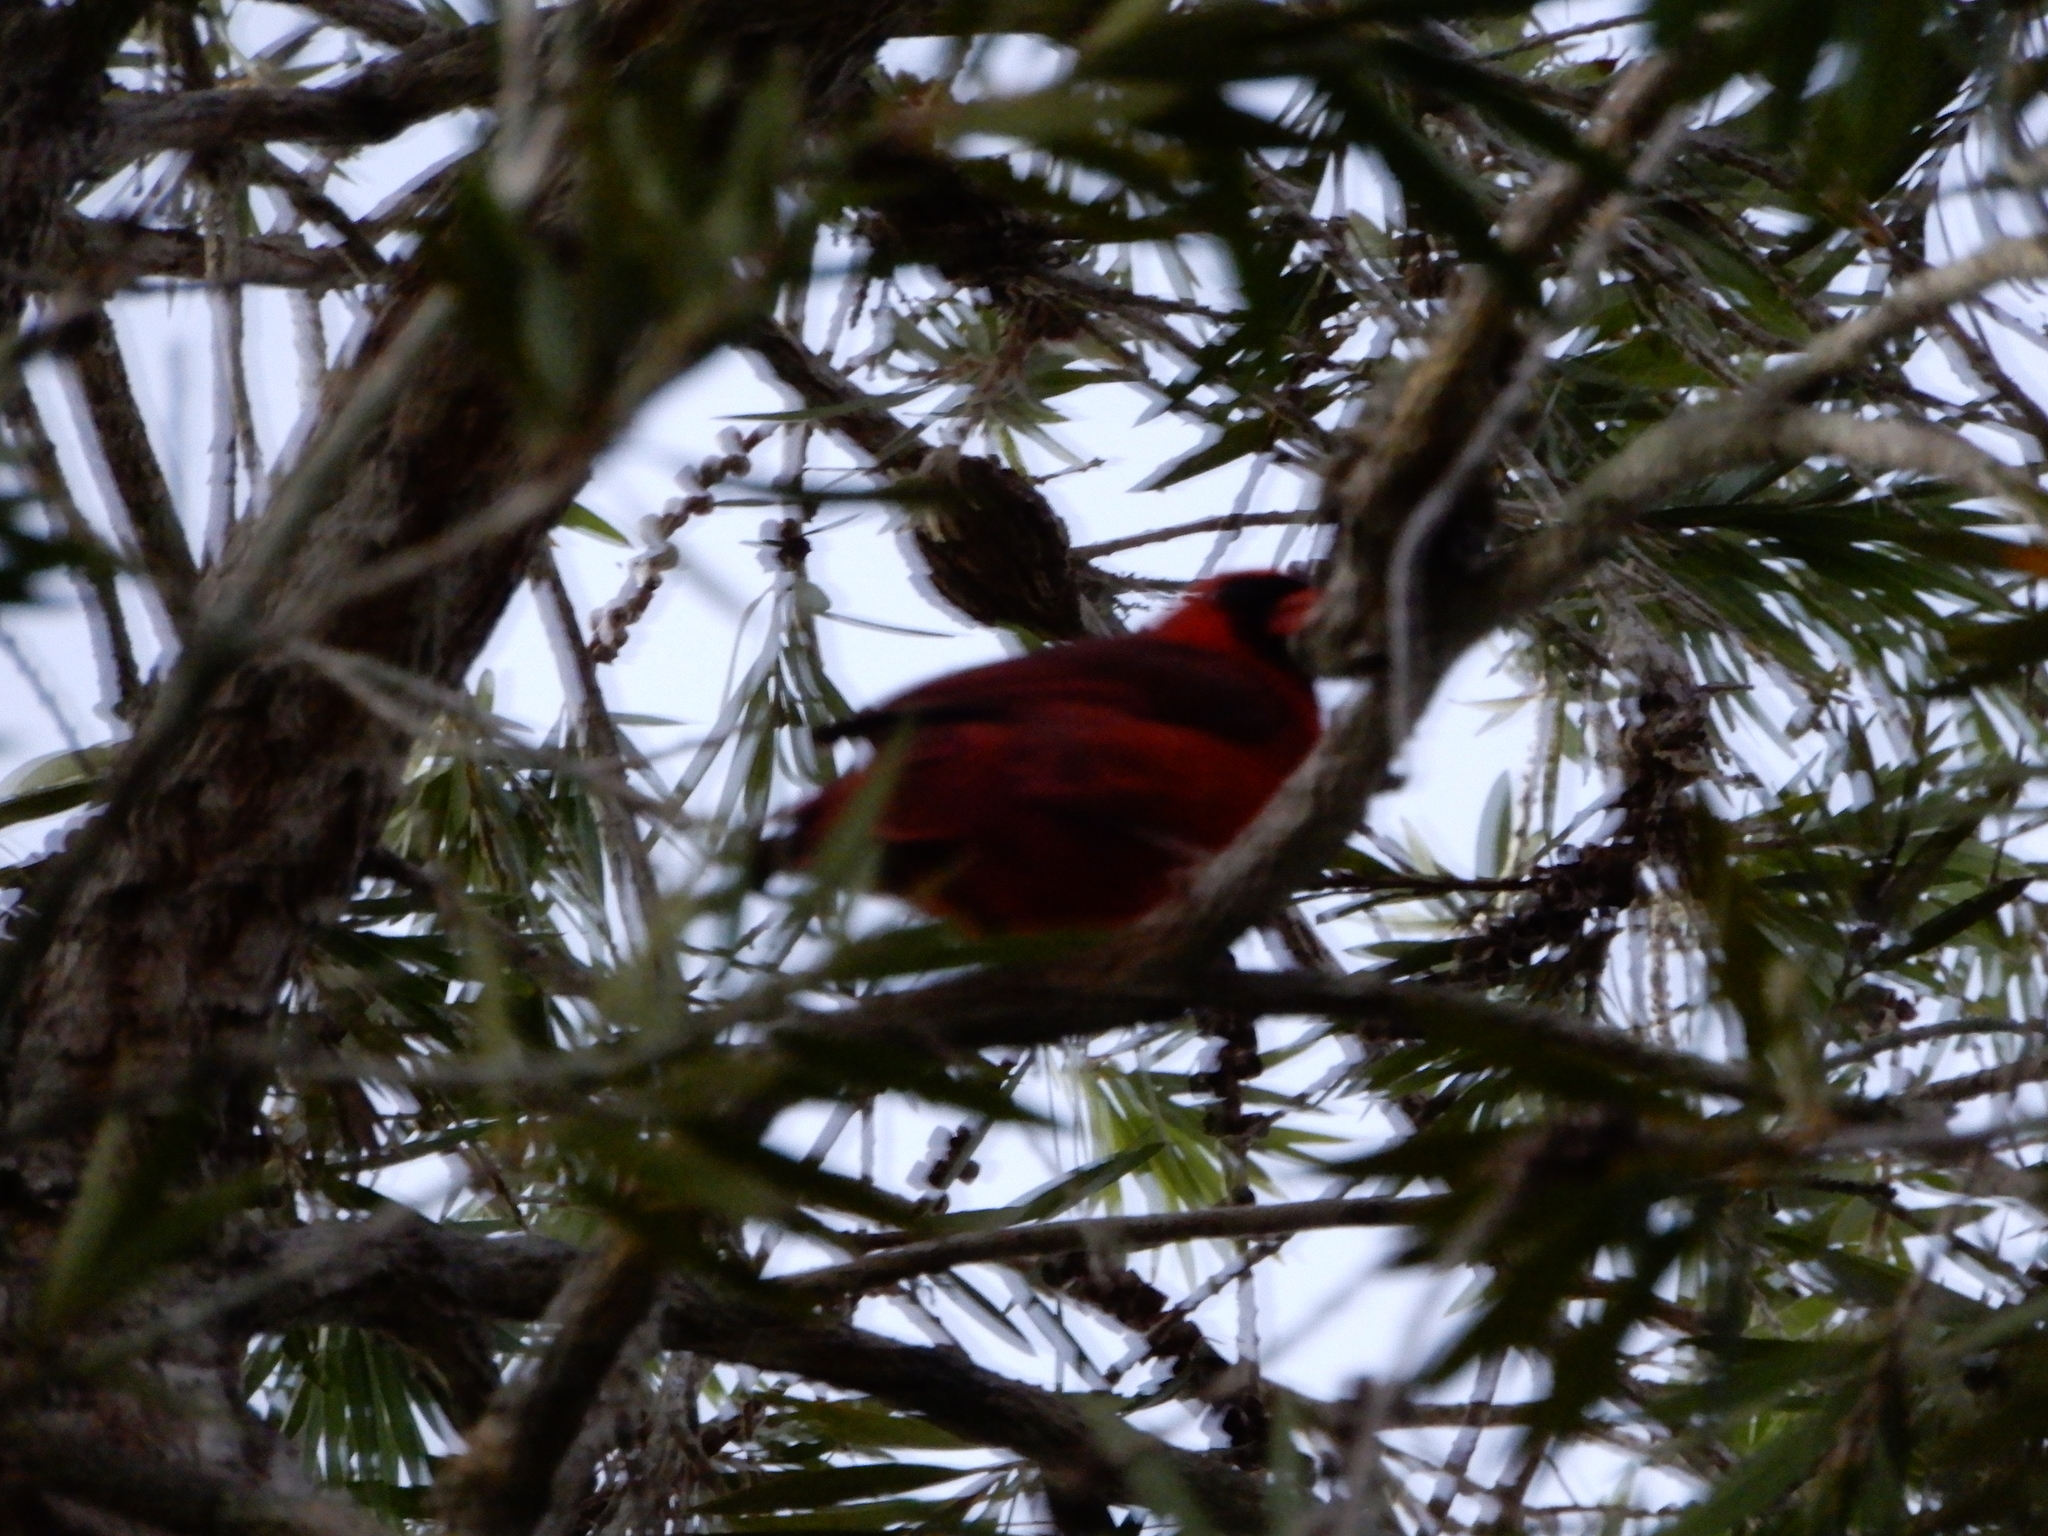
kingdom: Animalia
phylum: Chordata
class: Aves
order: Passeriformes
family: Cardinalidae
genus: Cardinalis
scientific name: Cardinalis cardinalis
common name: Northern cardinal
